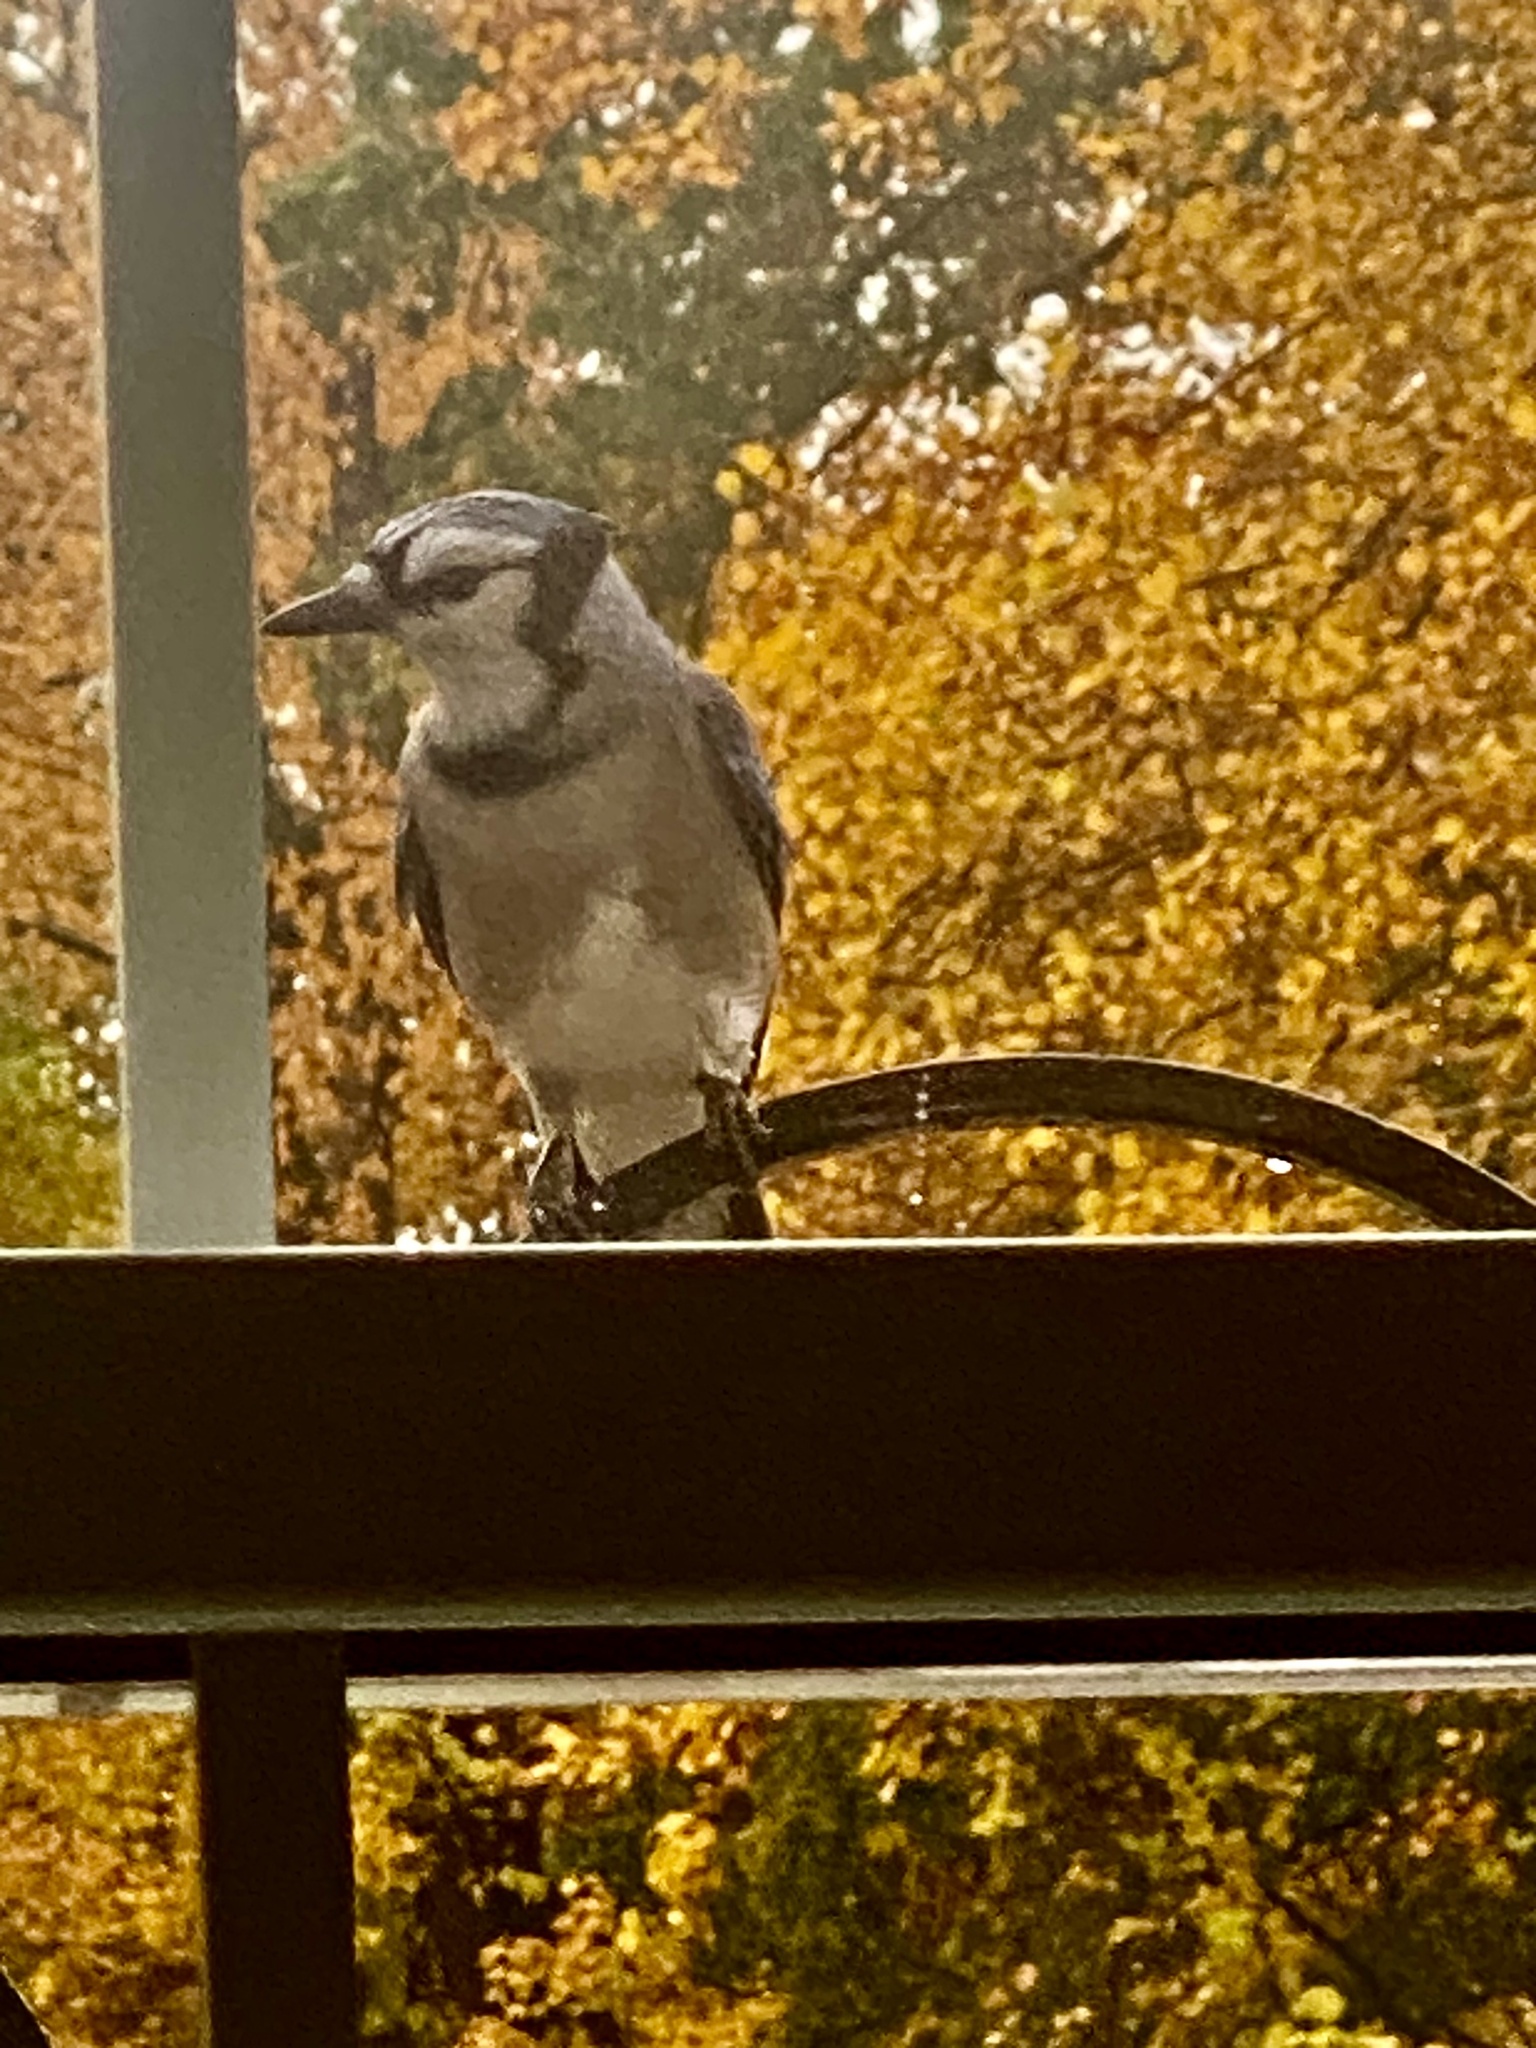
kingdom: Animalia
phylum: Chordata
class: Aves
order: Passeriformes
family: Corvidae
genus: Cyanocitta
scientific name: Cyanocitta cristata
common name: Blue jay
